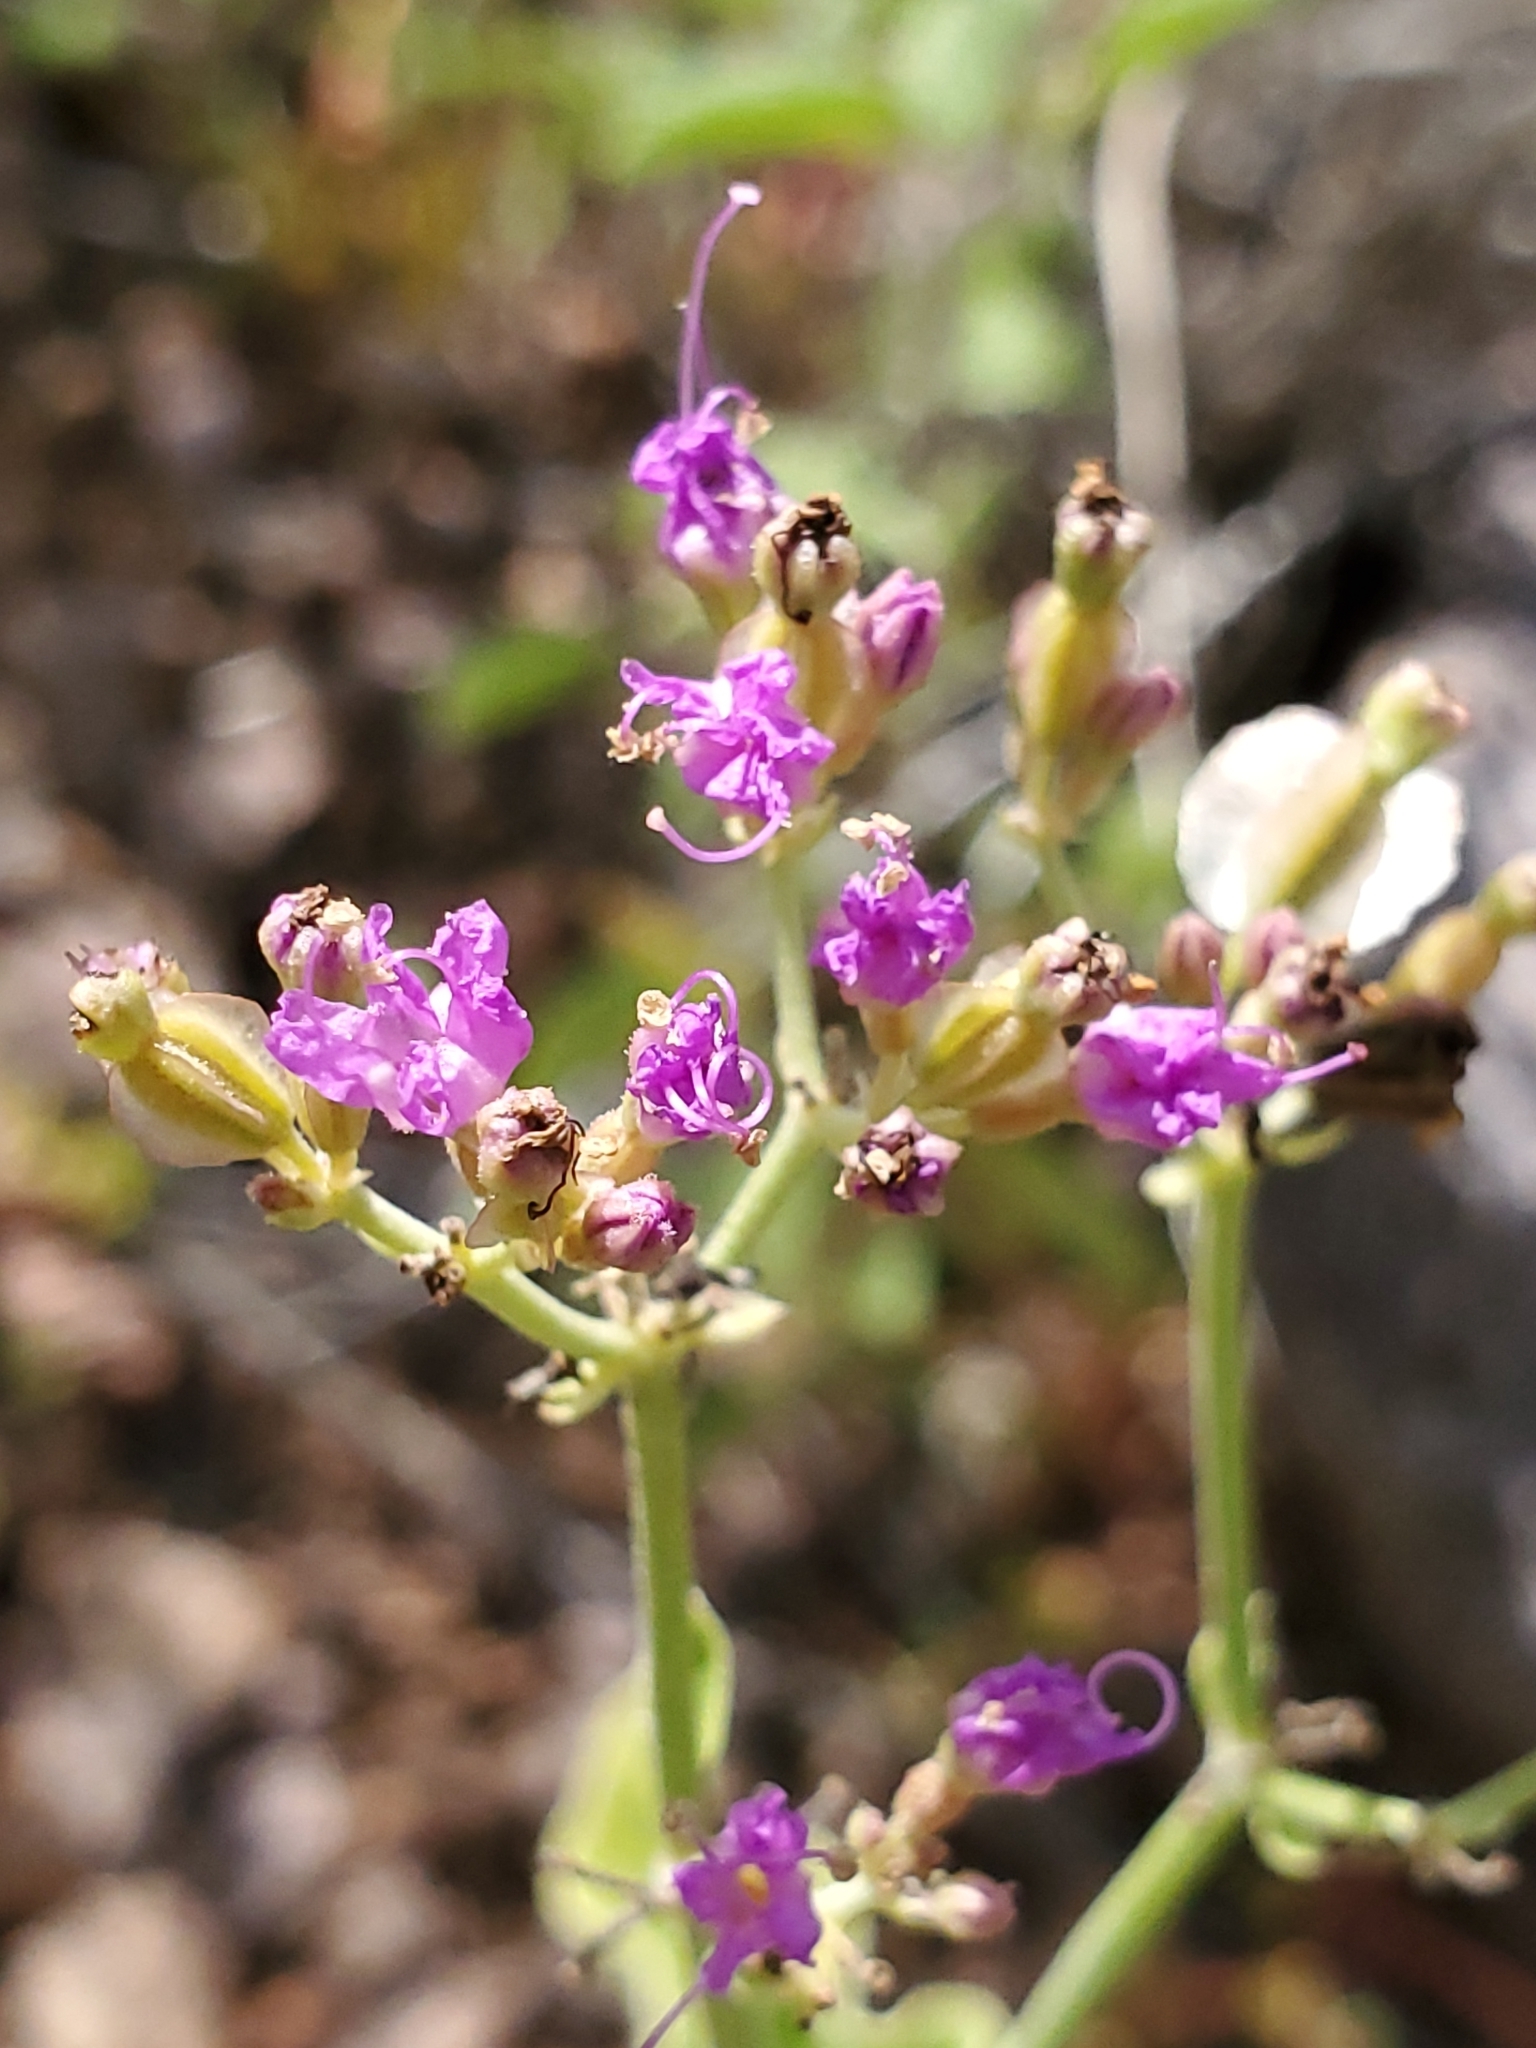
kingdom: Plantae
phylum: Tracheophyta
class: Magnoliopsida
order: Caryophyllales
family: Nyctaginaceae
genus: Acleisanthes
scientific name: Acleisanthes chenopodioides
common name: Goosefoot moonpod
